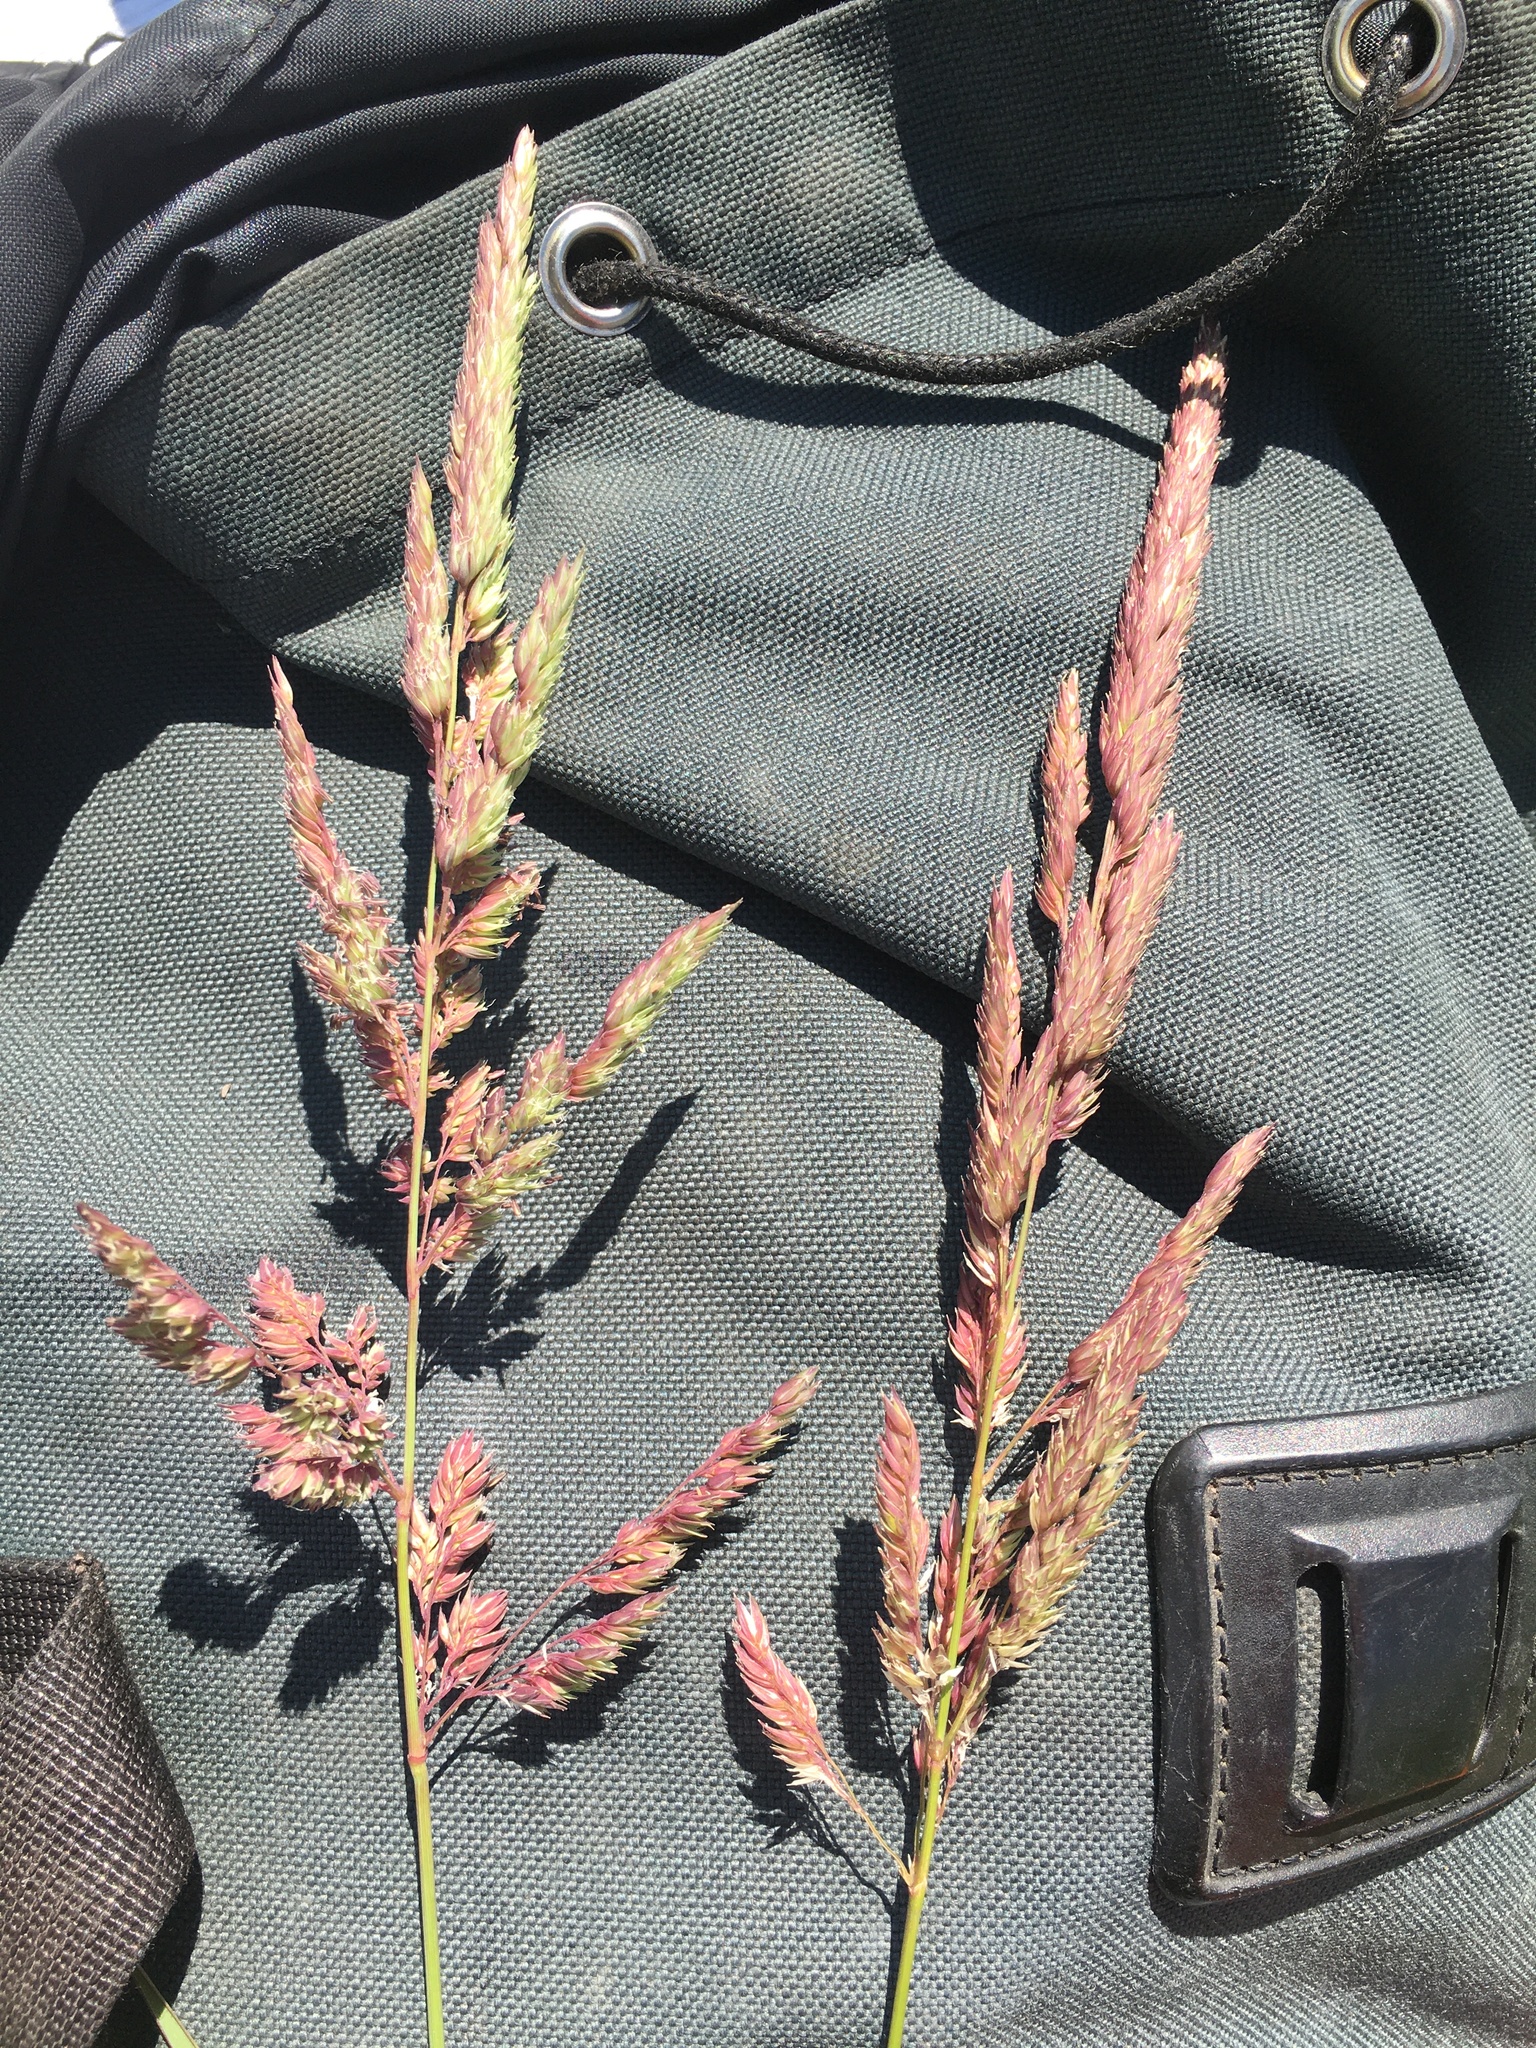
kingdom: Plantae
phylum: Tracheophyta
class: Liliopsida
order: Poales
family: Poaceae
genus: Phalaris
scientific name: Phalaris arundinacea
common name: Reed canary-grass
